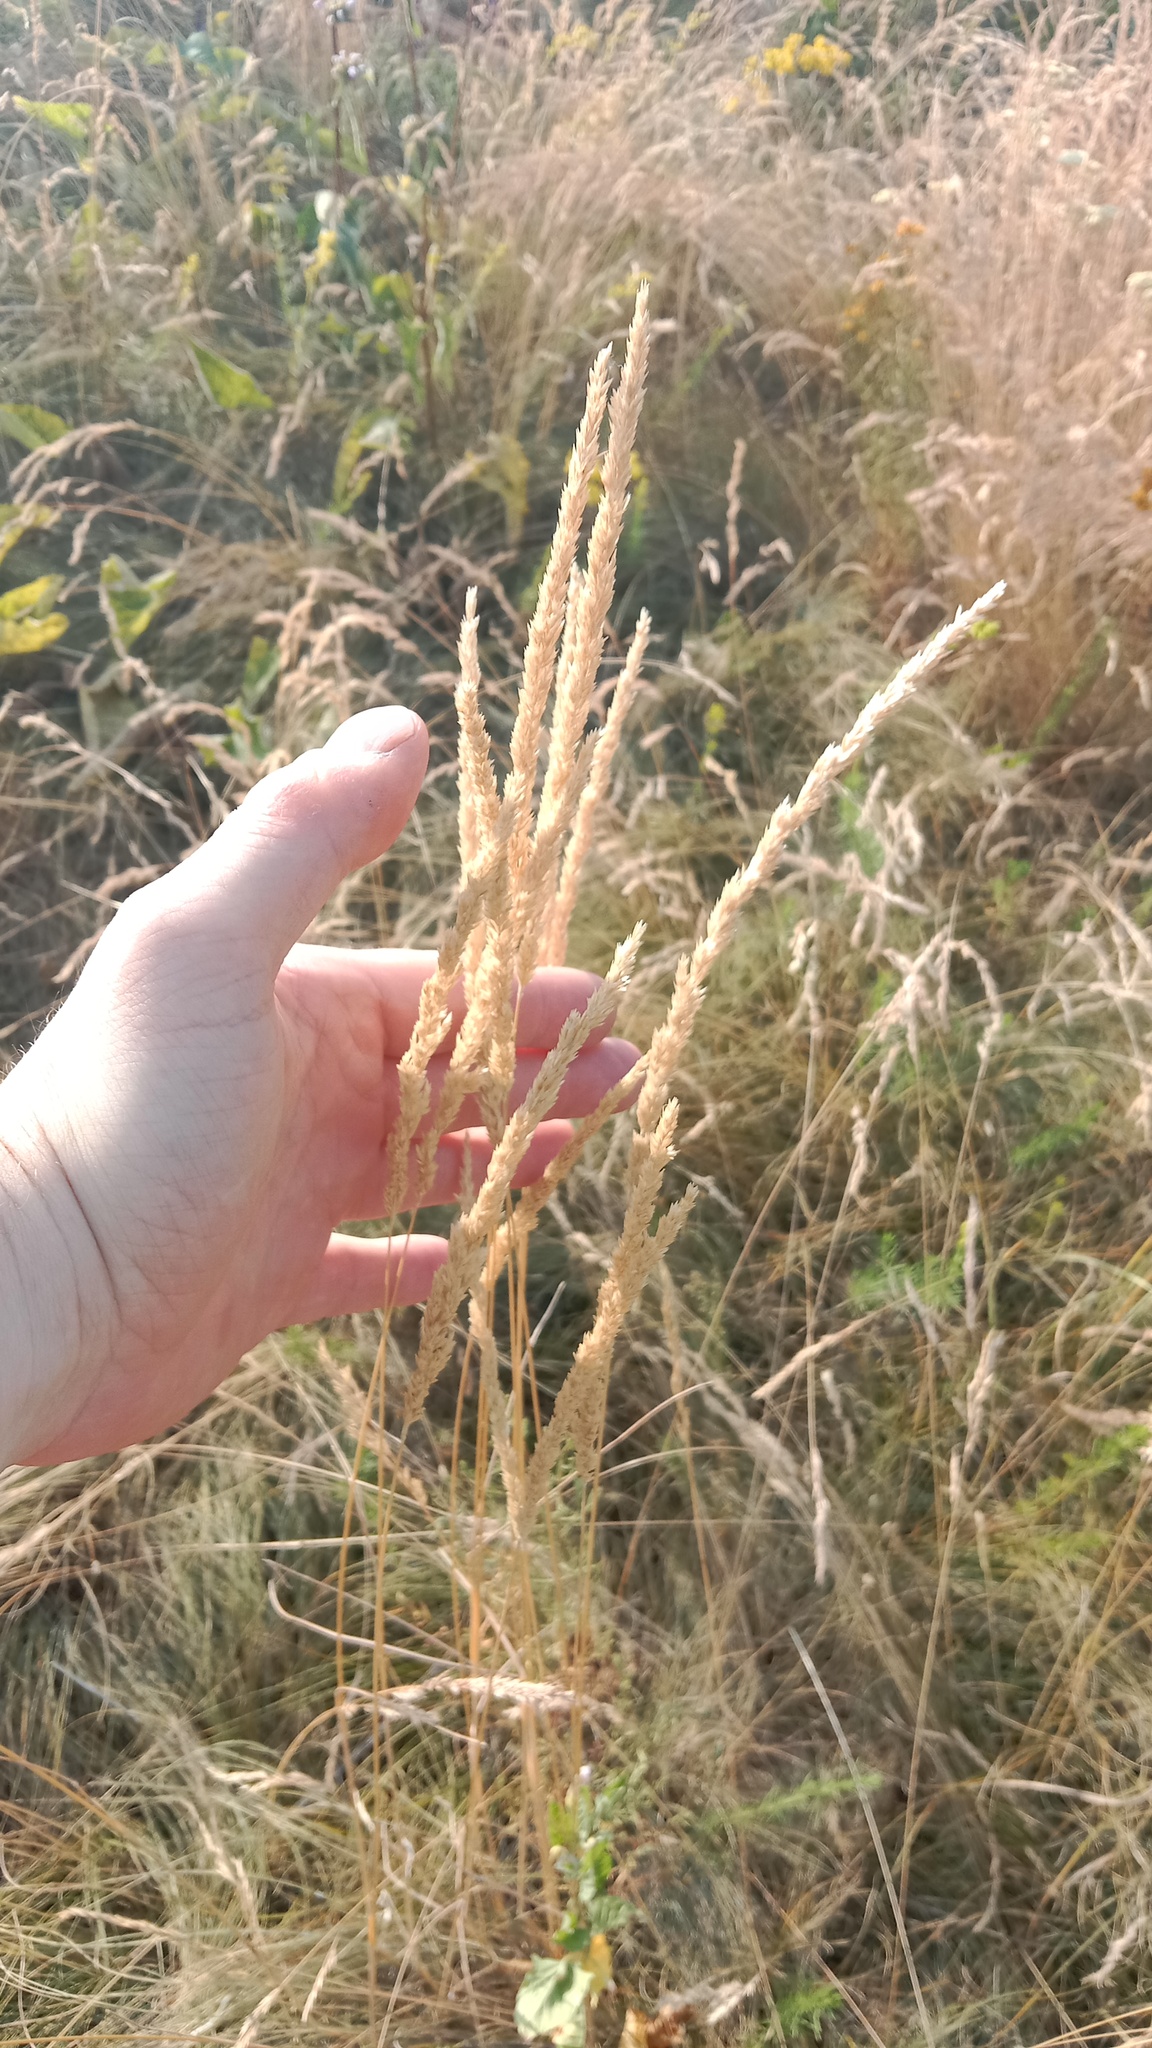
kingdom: Plantae
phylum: Tracheophyta
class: Liliopsida
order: Poales
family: Poaceae
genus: Koeleria
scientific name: Koeleria macrantha
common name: Crested hair-grass
